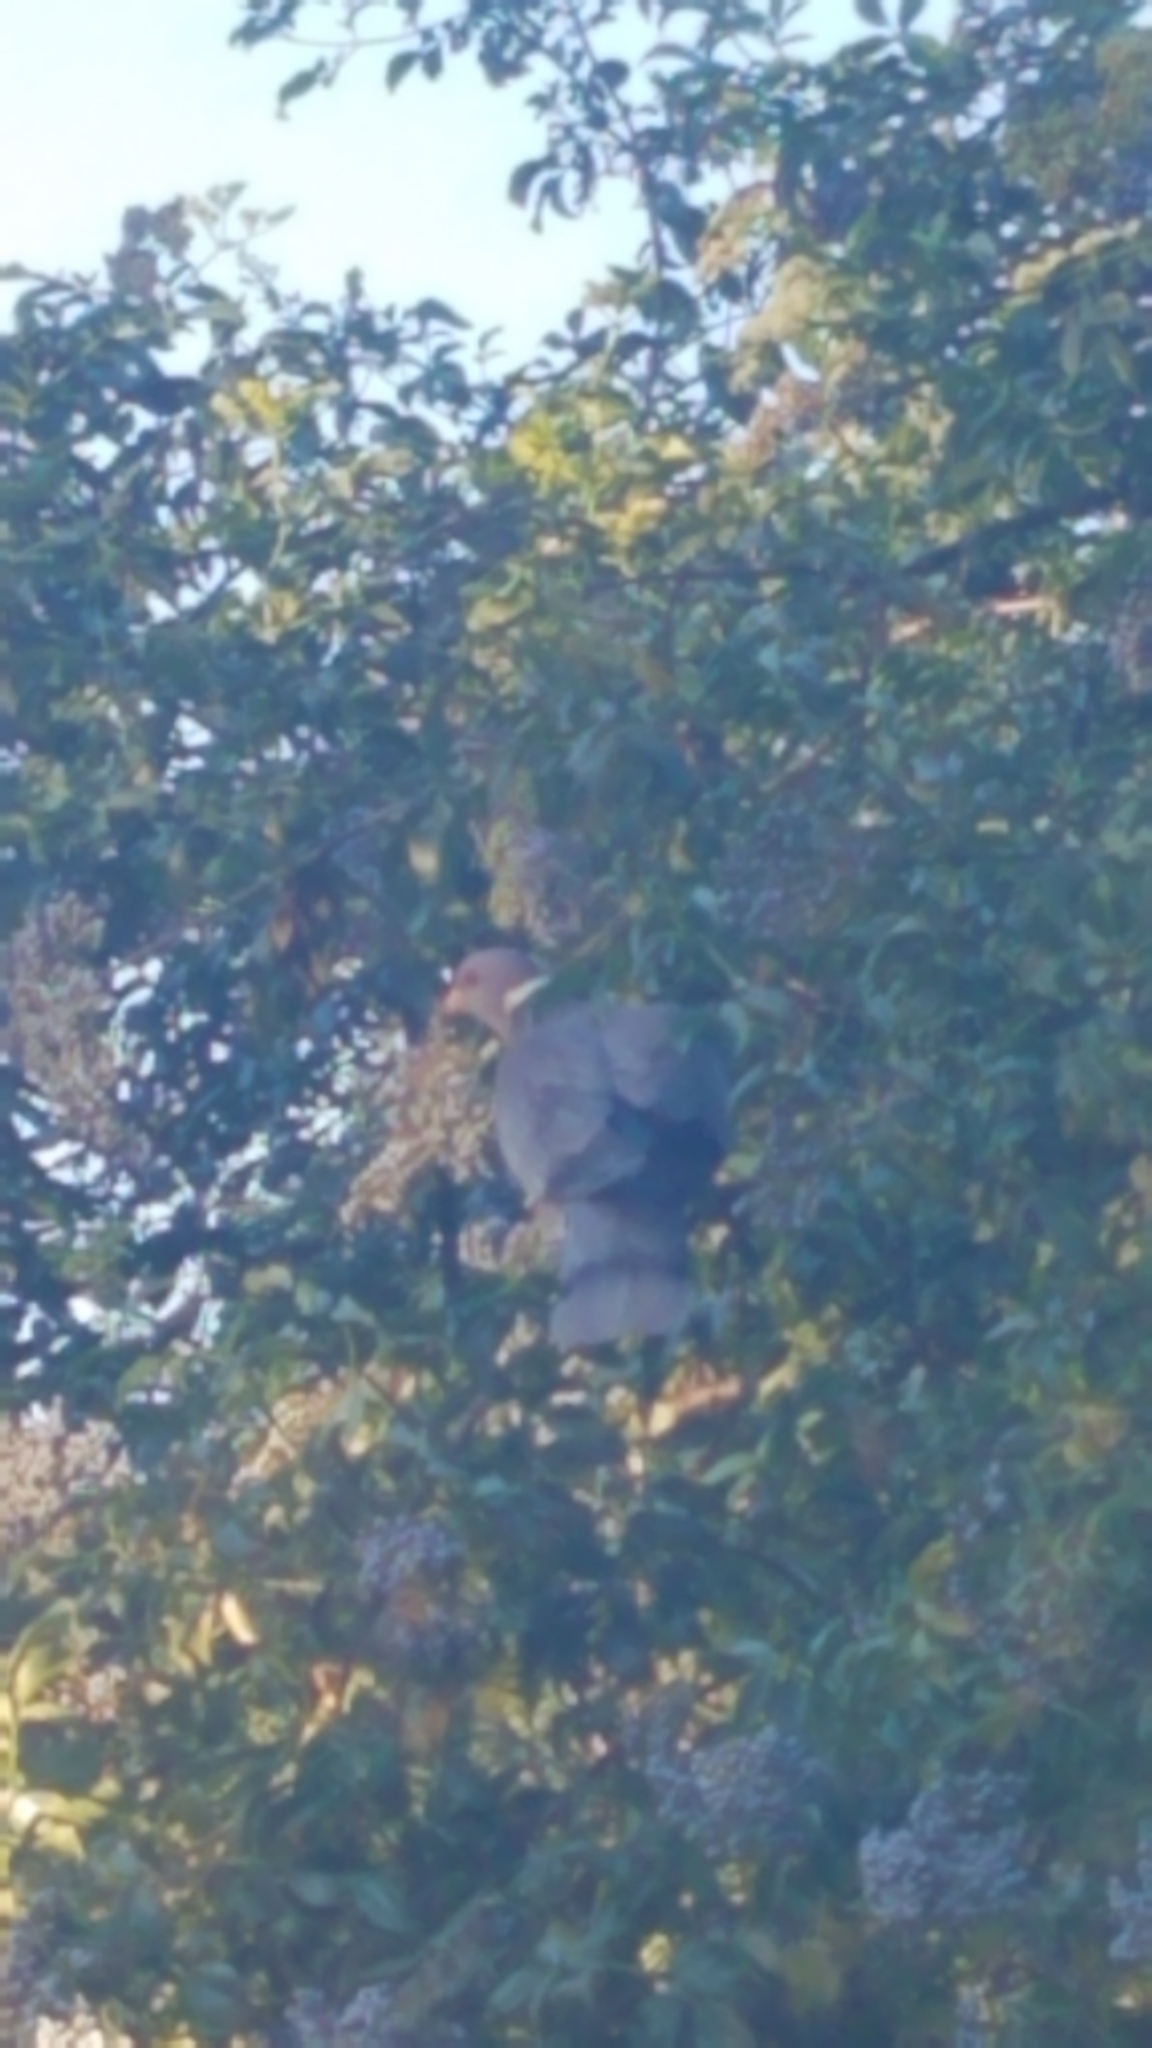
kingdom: Animalia
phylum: Chordata
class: Aves
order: Columbiformes
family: Columbidae
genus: Patagioenas
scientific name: Patagioenas fasciata
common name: Band-tailed pigeon
